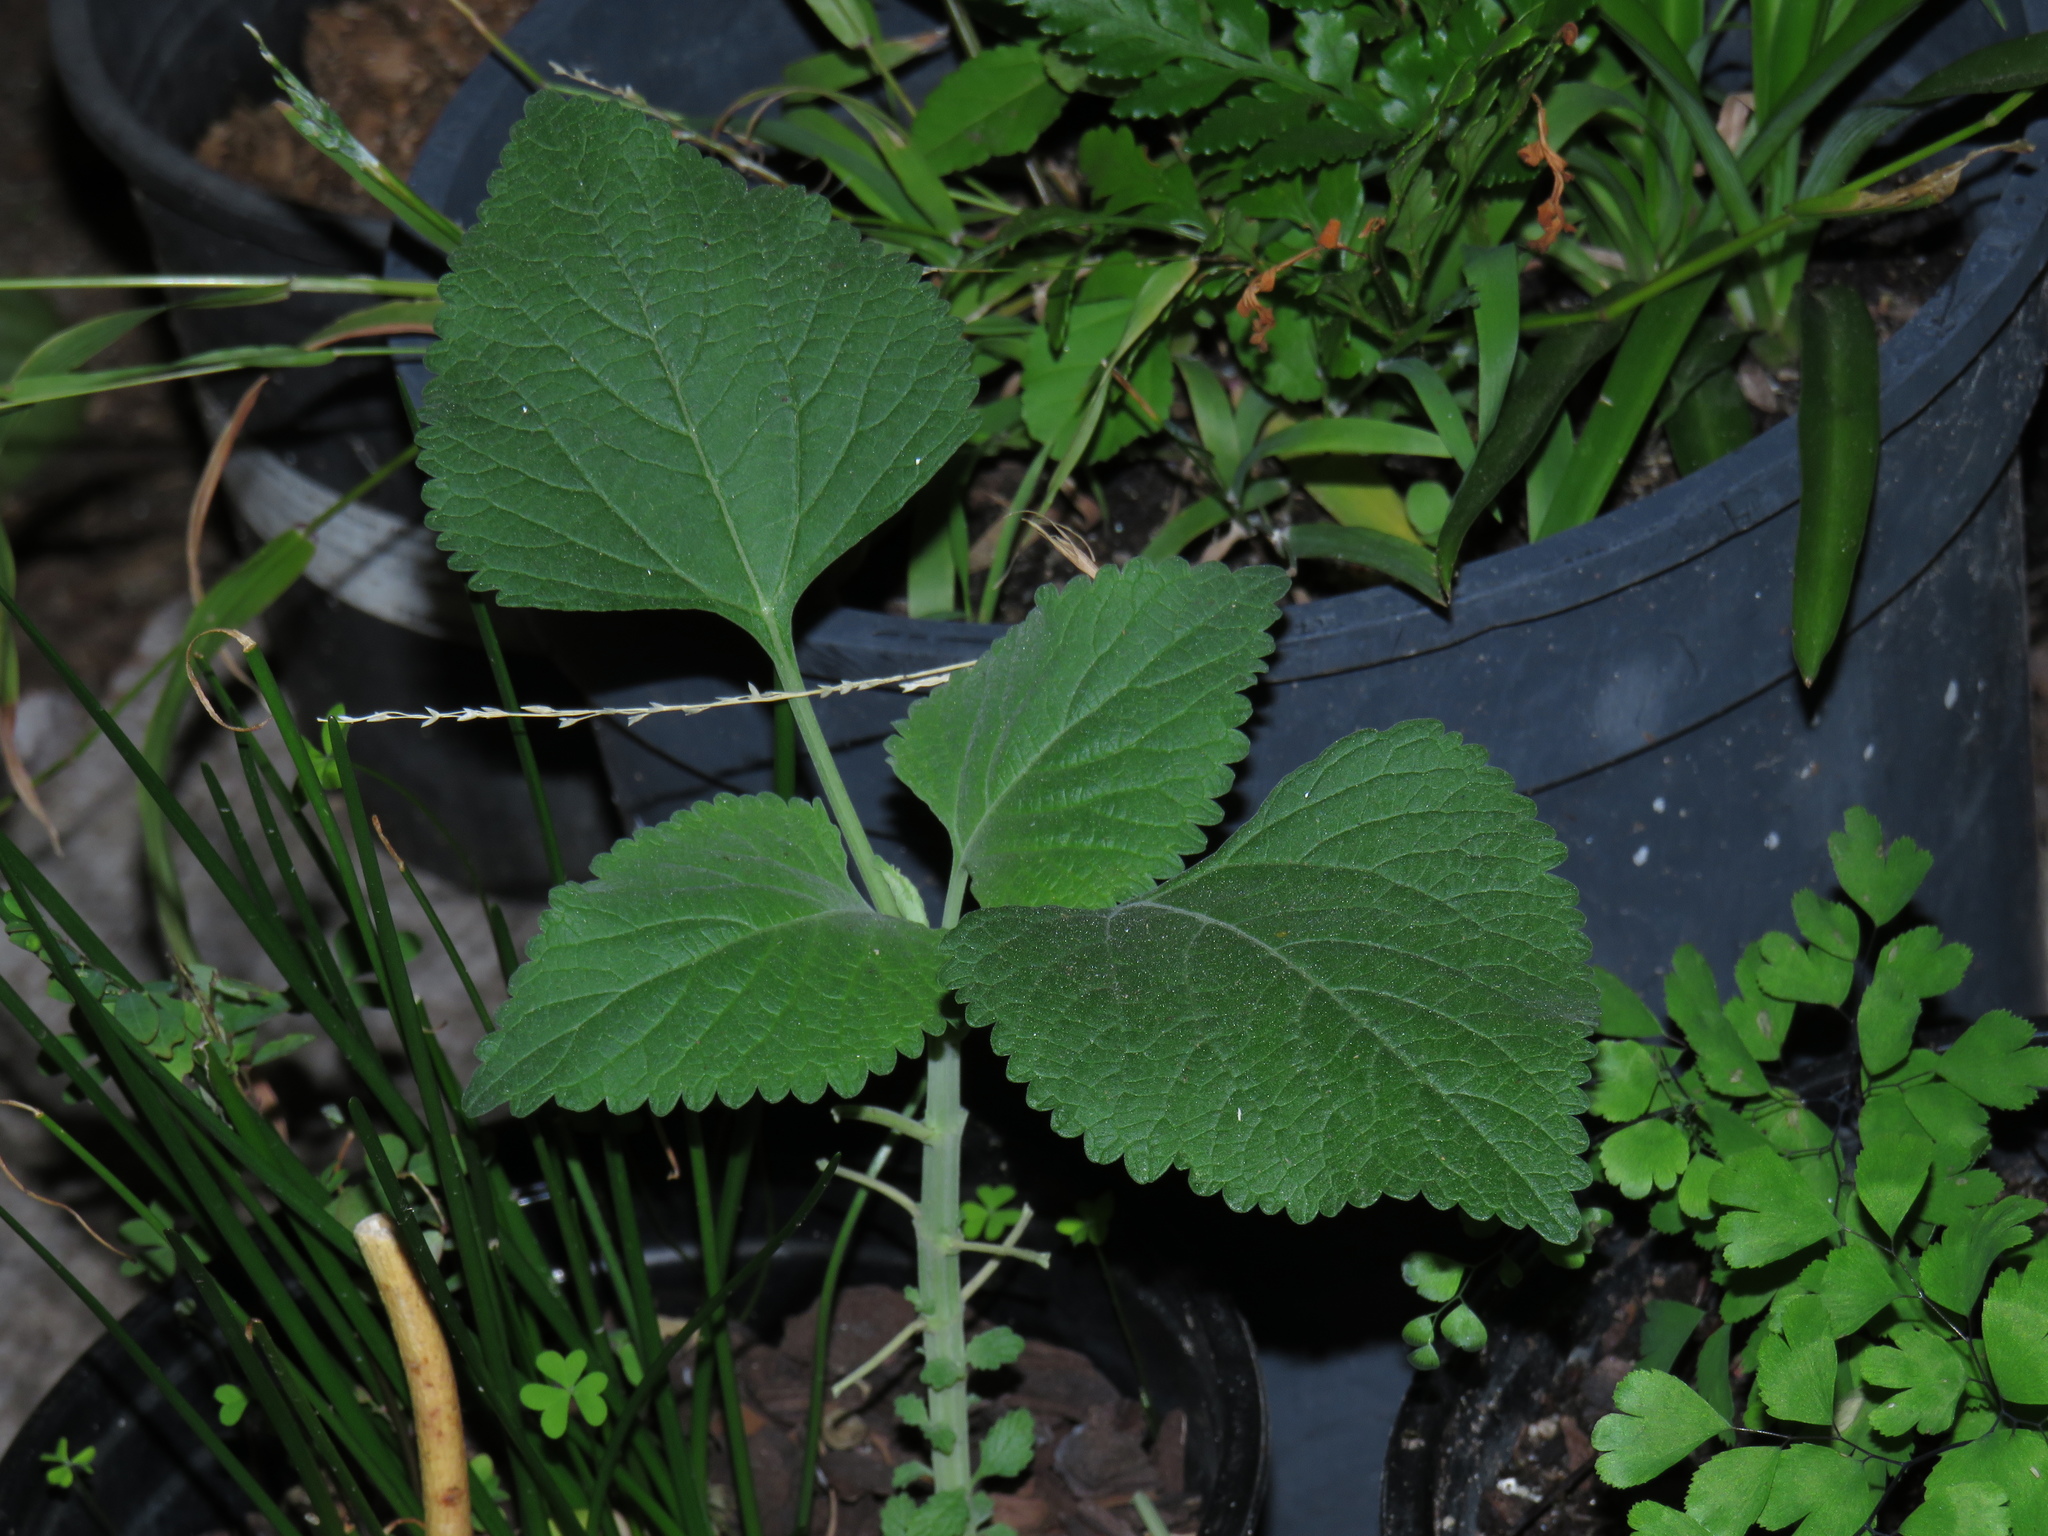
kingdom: Plantae
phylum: Tracheophyta
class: Magnoliopsida
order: Lamiales
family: Lamiaceae
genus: Leonotis
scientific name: Leonotis nepetifolia
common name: Christmas candlestick
